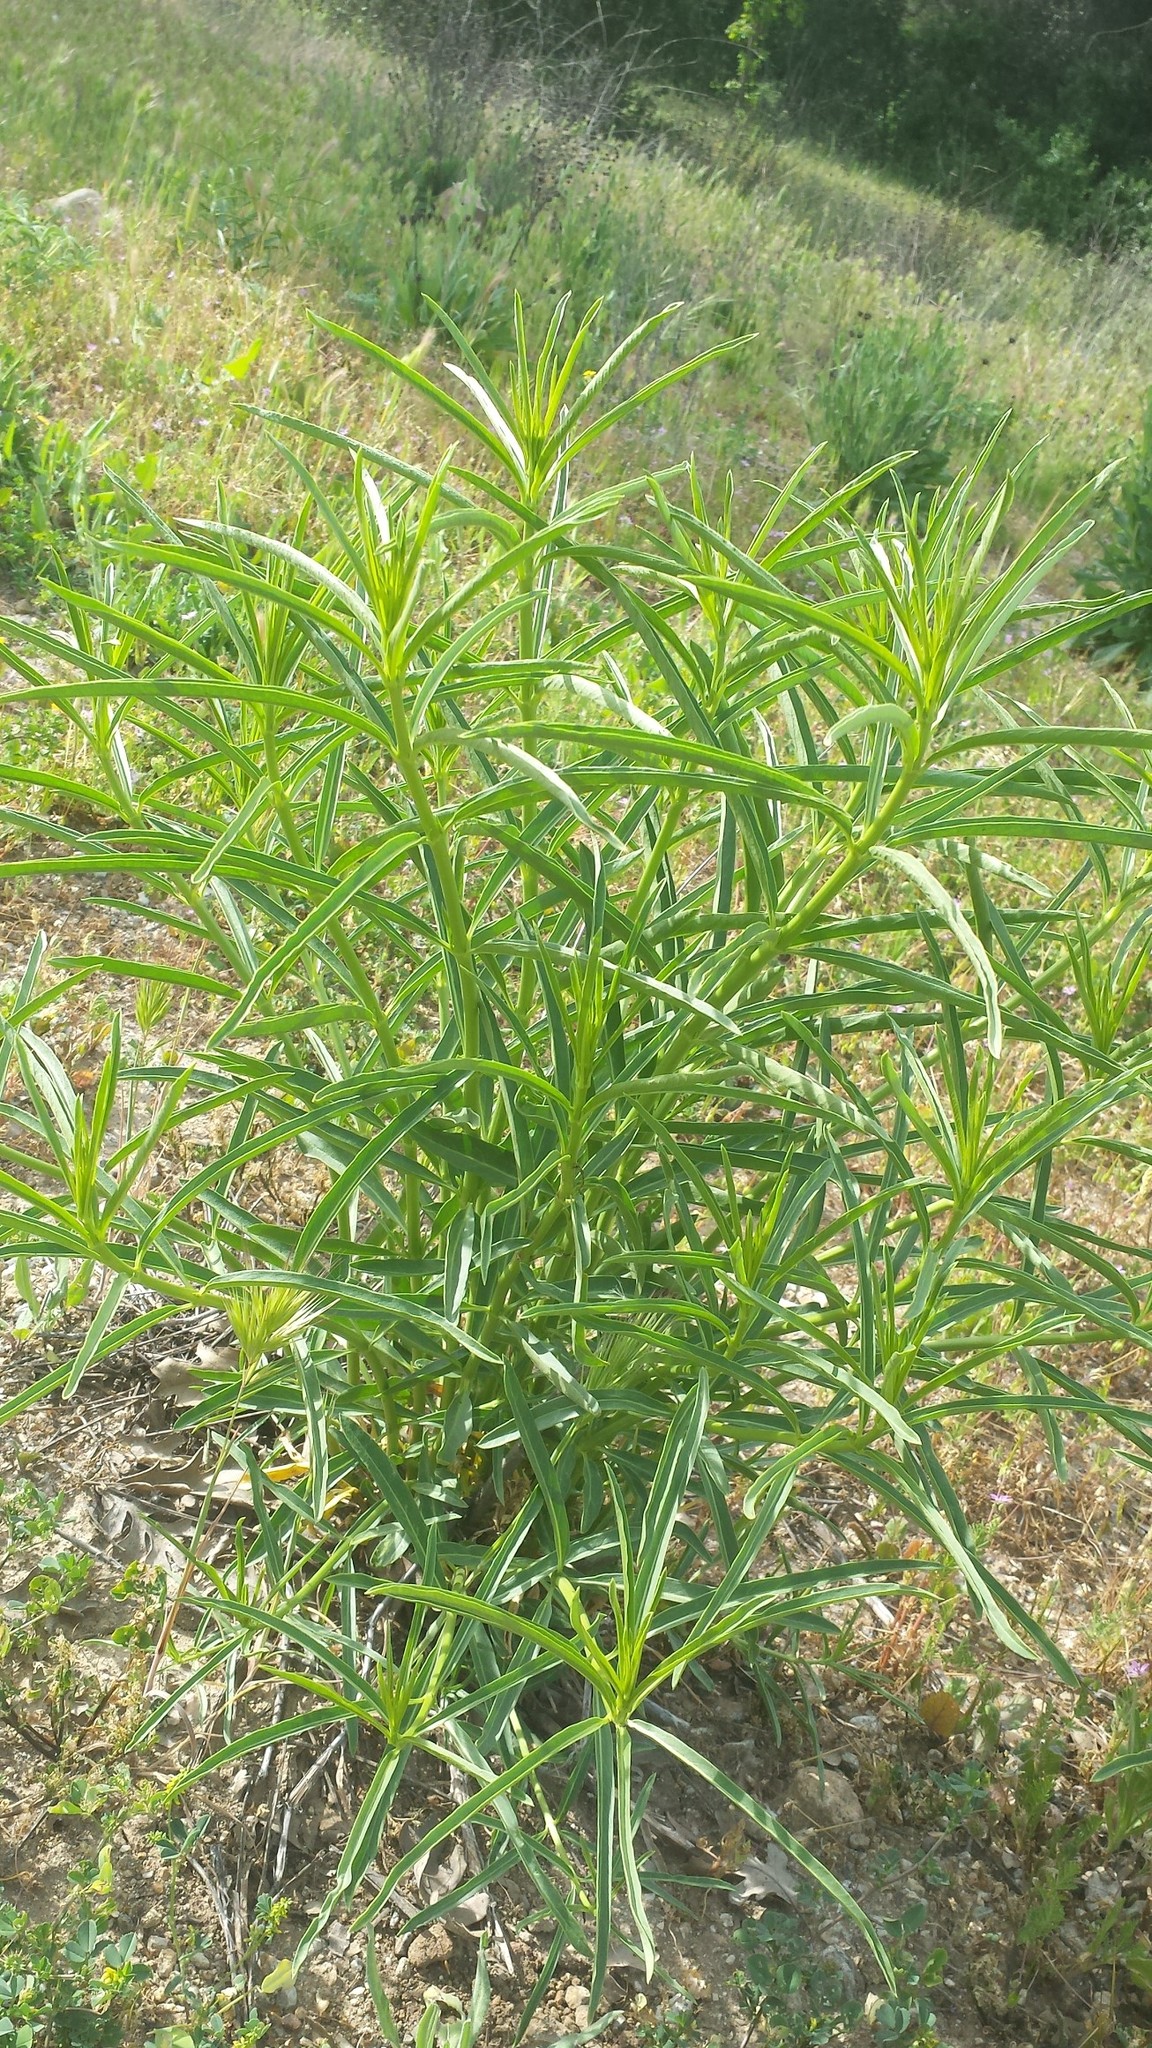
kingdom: Plantae
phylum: Tracheophyta
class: Magnoliopsida
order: Gentianales
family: Apocynaceae
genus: Asclepias
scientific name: Asclepias fascicularis
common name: Mexican milkweed
